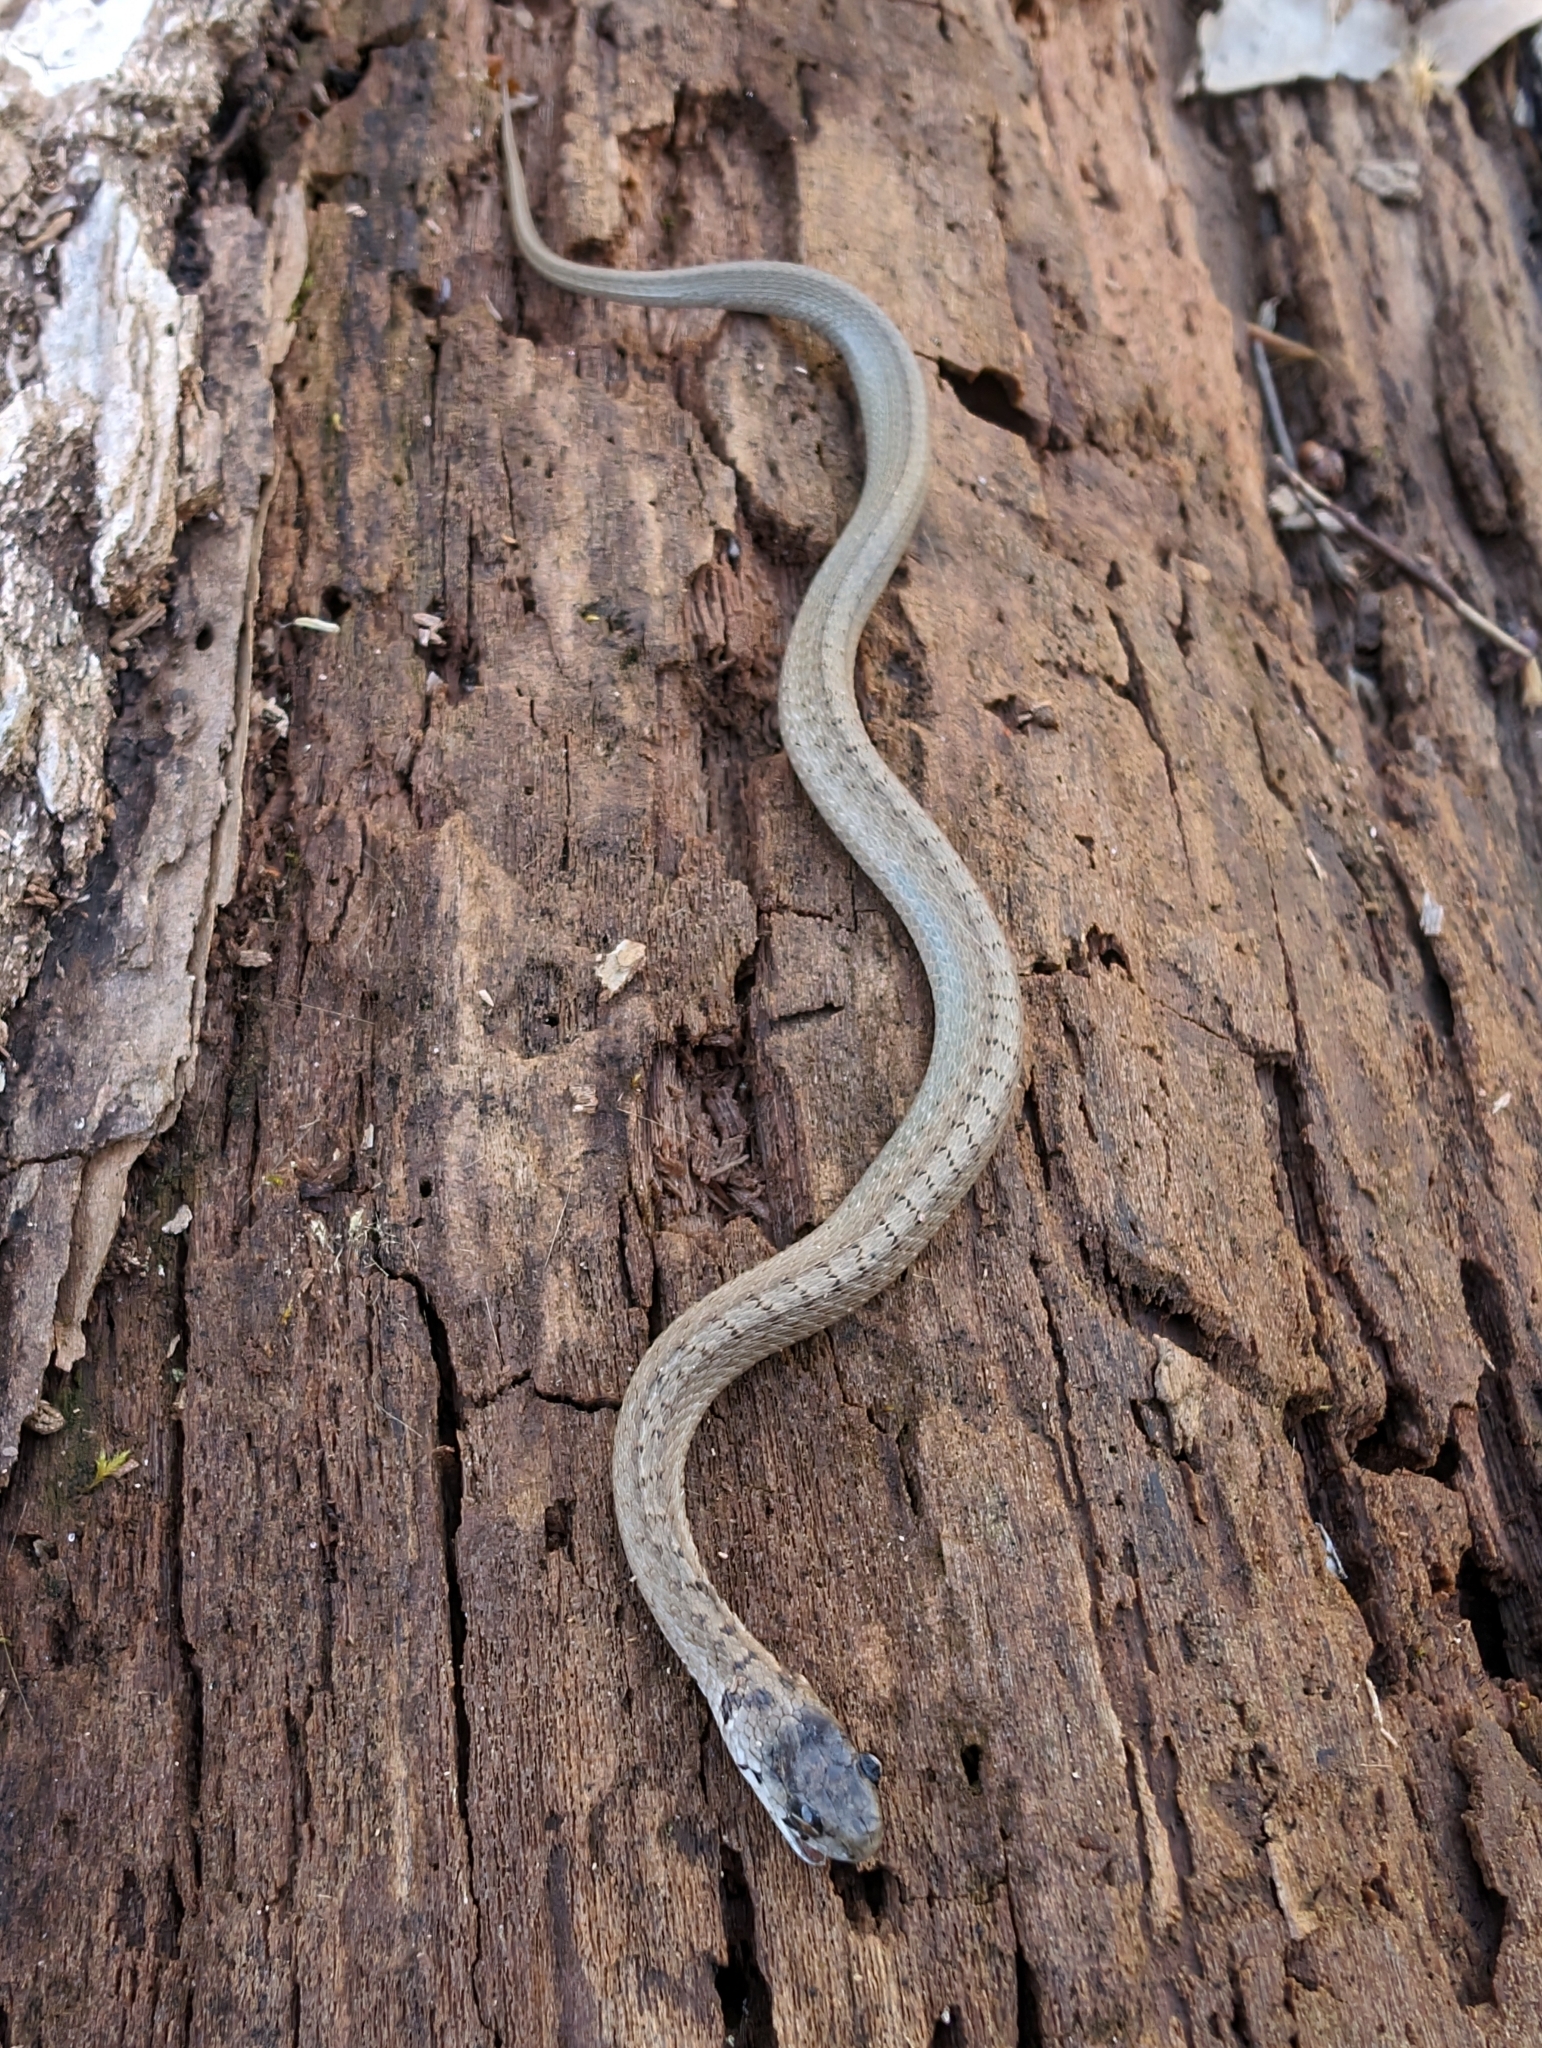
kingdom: Animalia
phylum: Chordata
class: Squamata
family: Colubridae
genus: Storeria
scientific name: Storeria dekayi
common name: (dekay’s) brown snake
